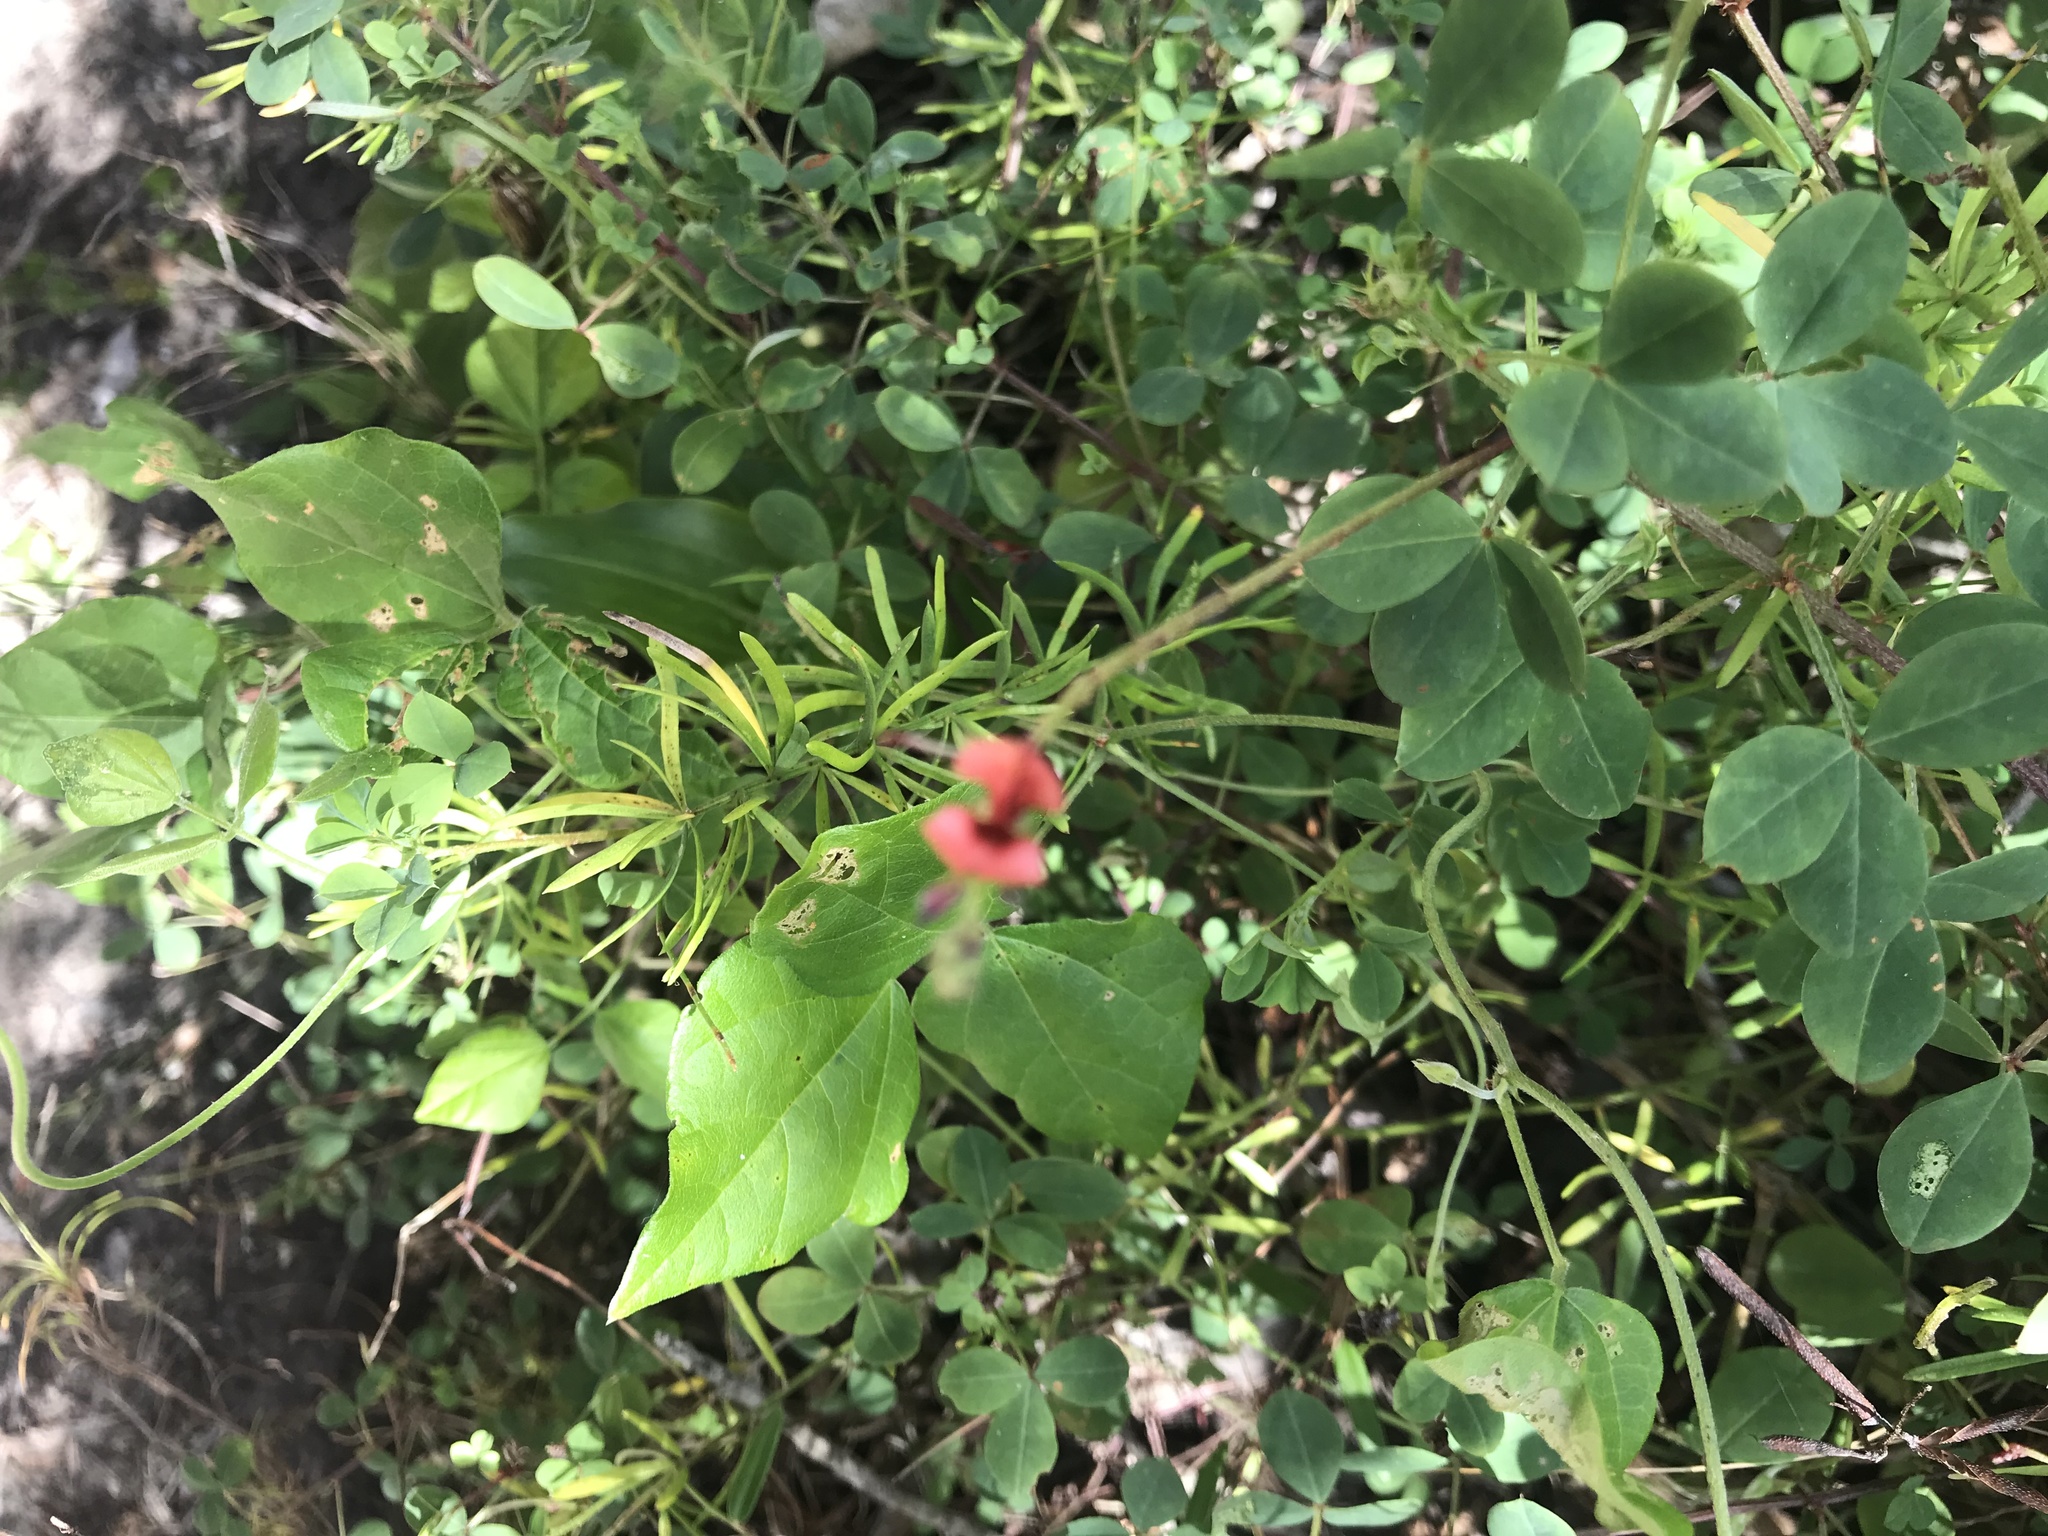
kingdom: Plantae
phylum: Tracheophyta
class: Magnoliopsida
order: Fabales
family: Fabaceae
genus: Indigofera
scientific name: Indigofera erecta
